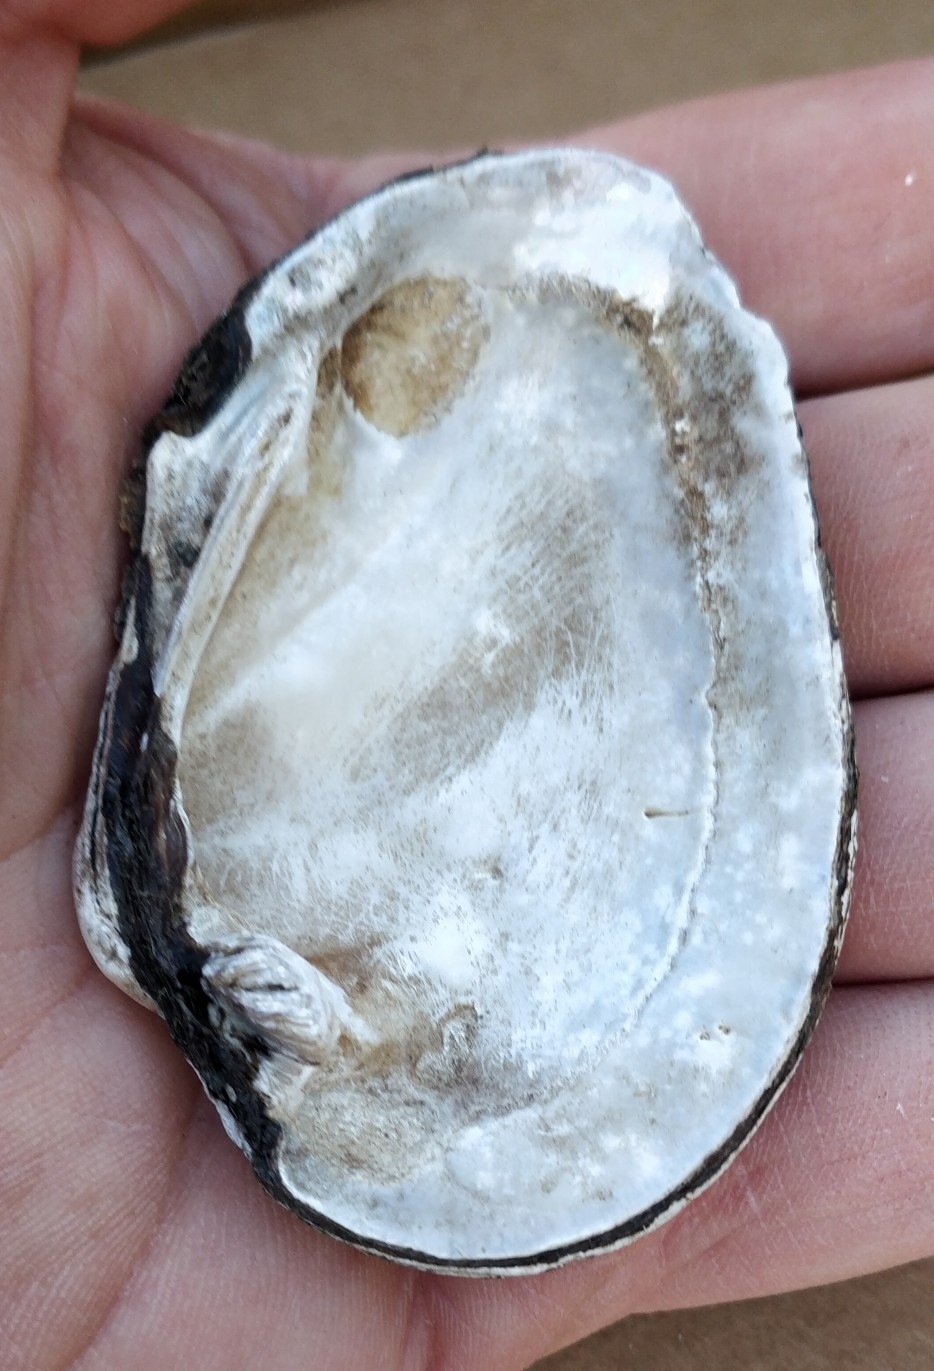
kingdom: Animalia
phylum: Mollusca
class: Bivalvia
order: Unionida
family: Unionidae
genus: Fusconaia
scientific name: Fusconaia flava
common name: Wabash pigtoe
